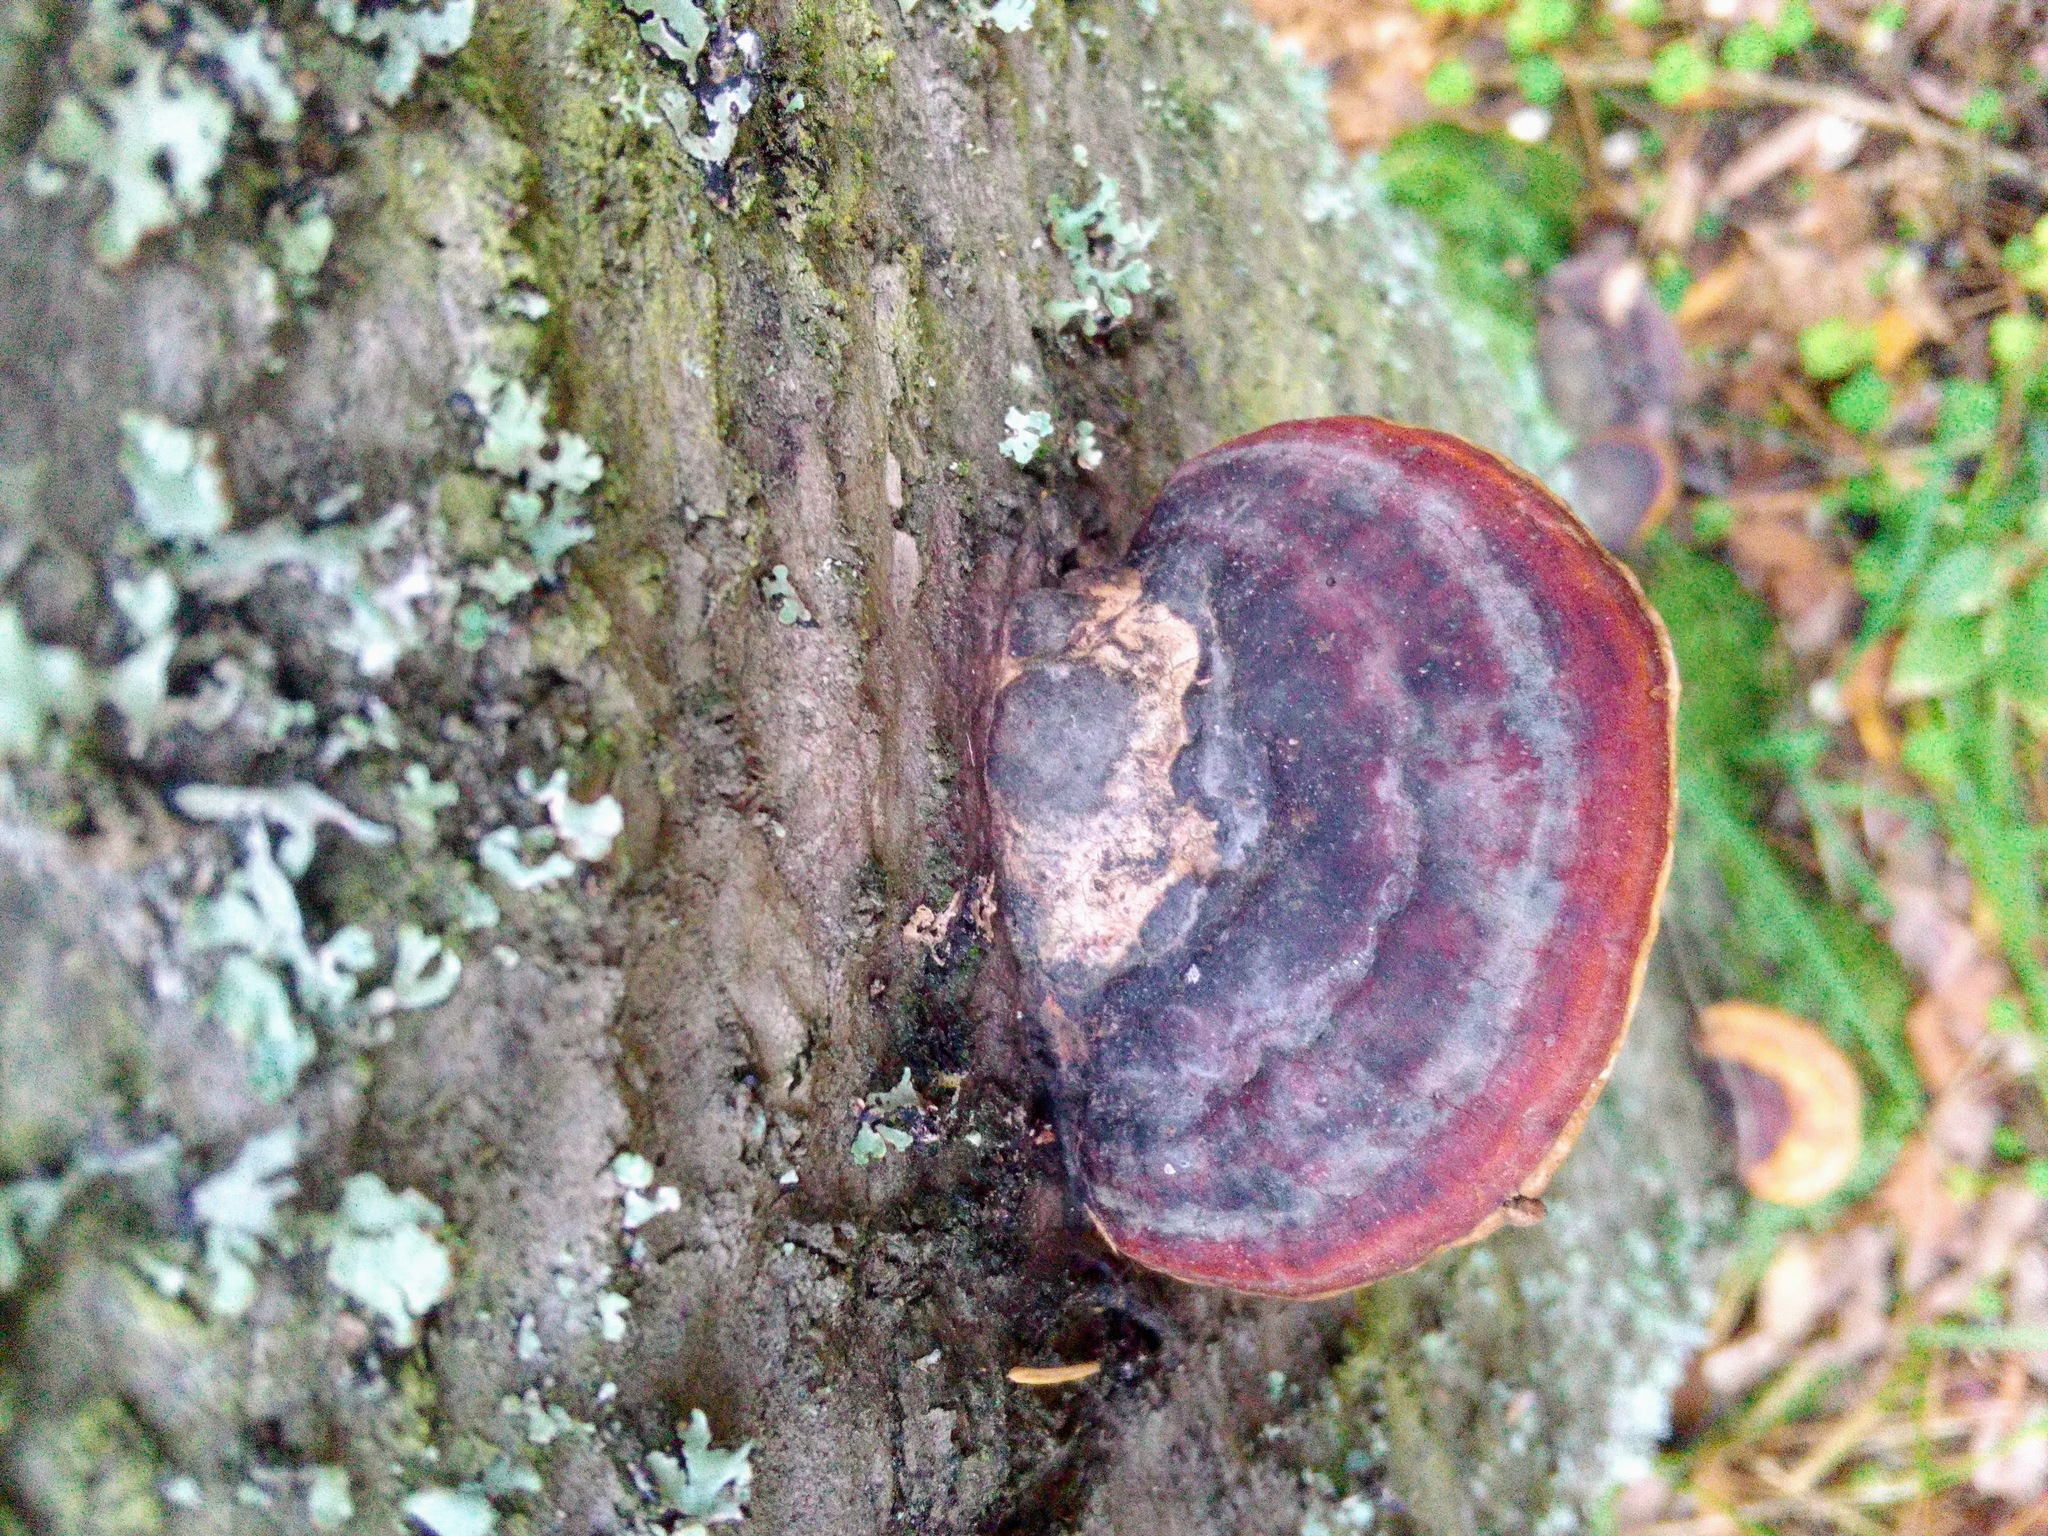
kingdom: Fungi
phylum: Basidiomycota
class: Agaricomycetes
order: Polyporales
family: Fomitopsidaceae
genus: Fomitopsis
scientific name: Fomitopsis pinicola
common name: Red-belted bracket
